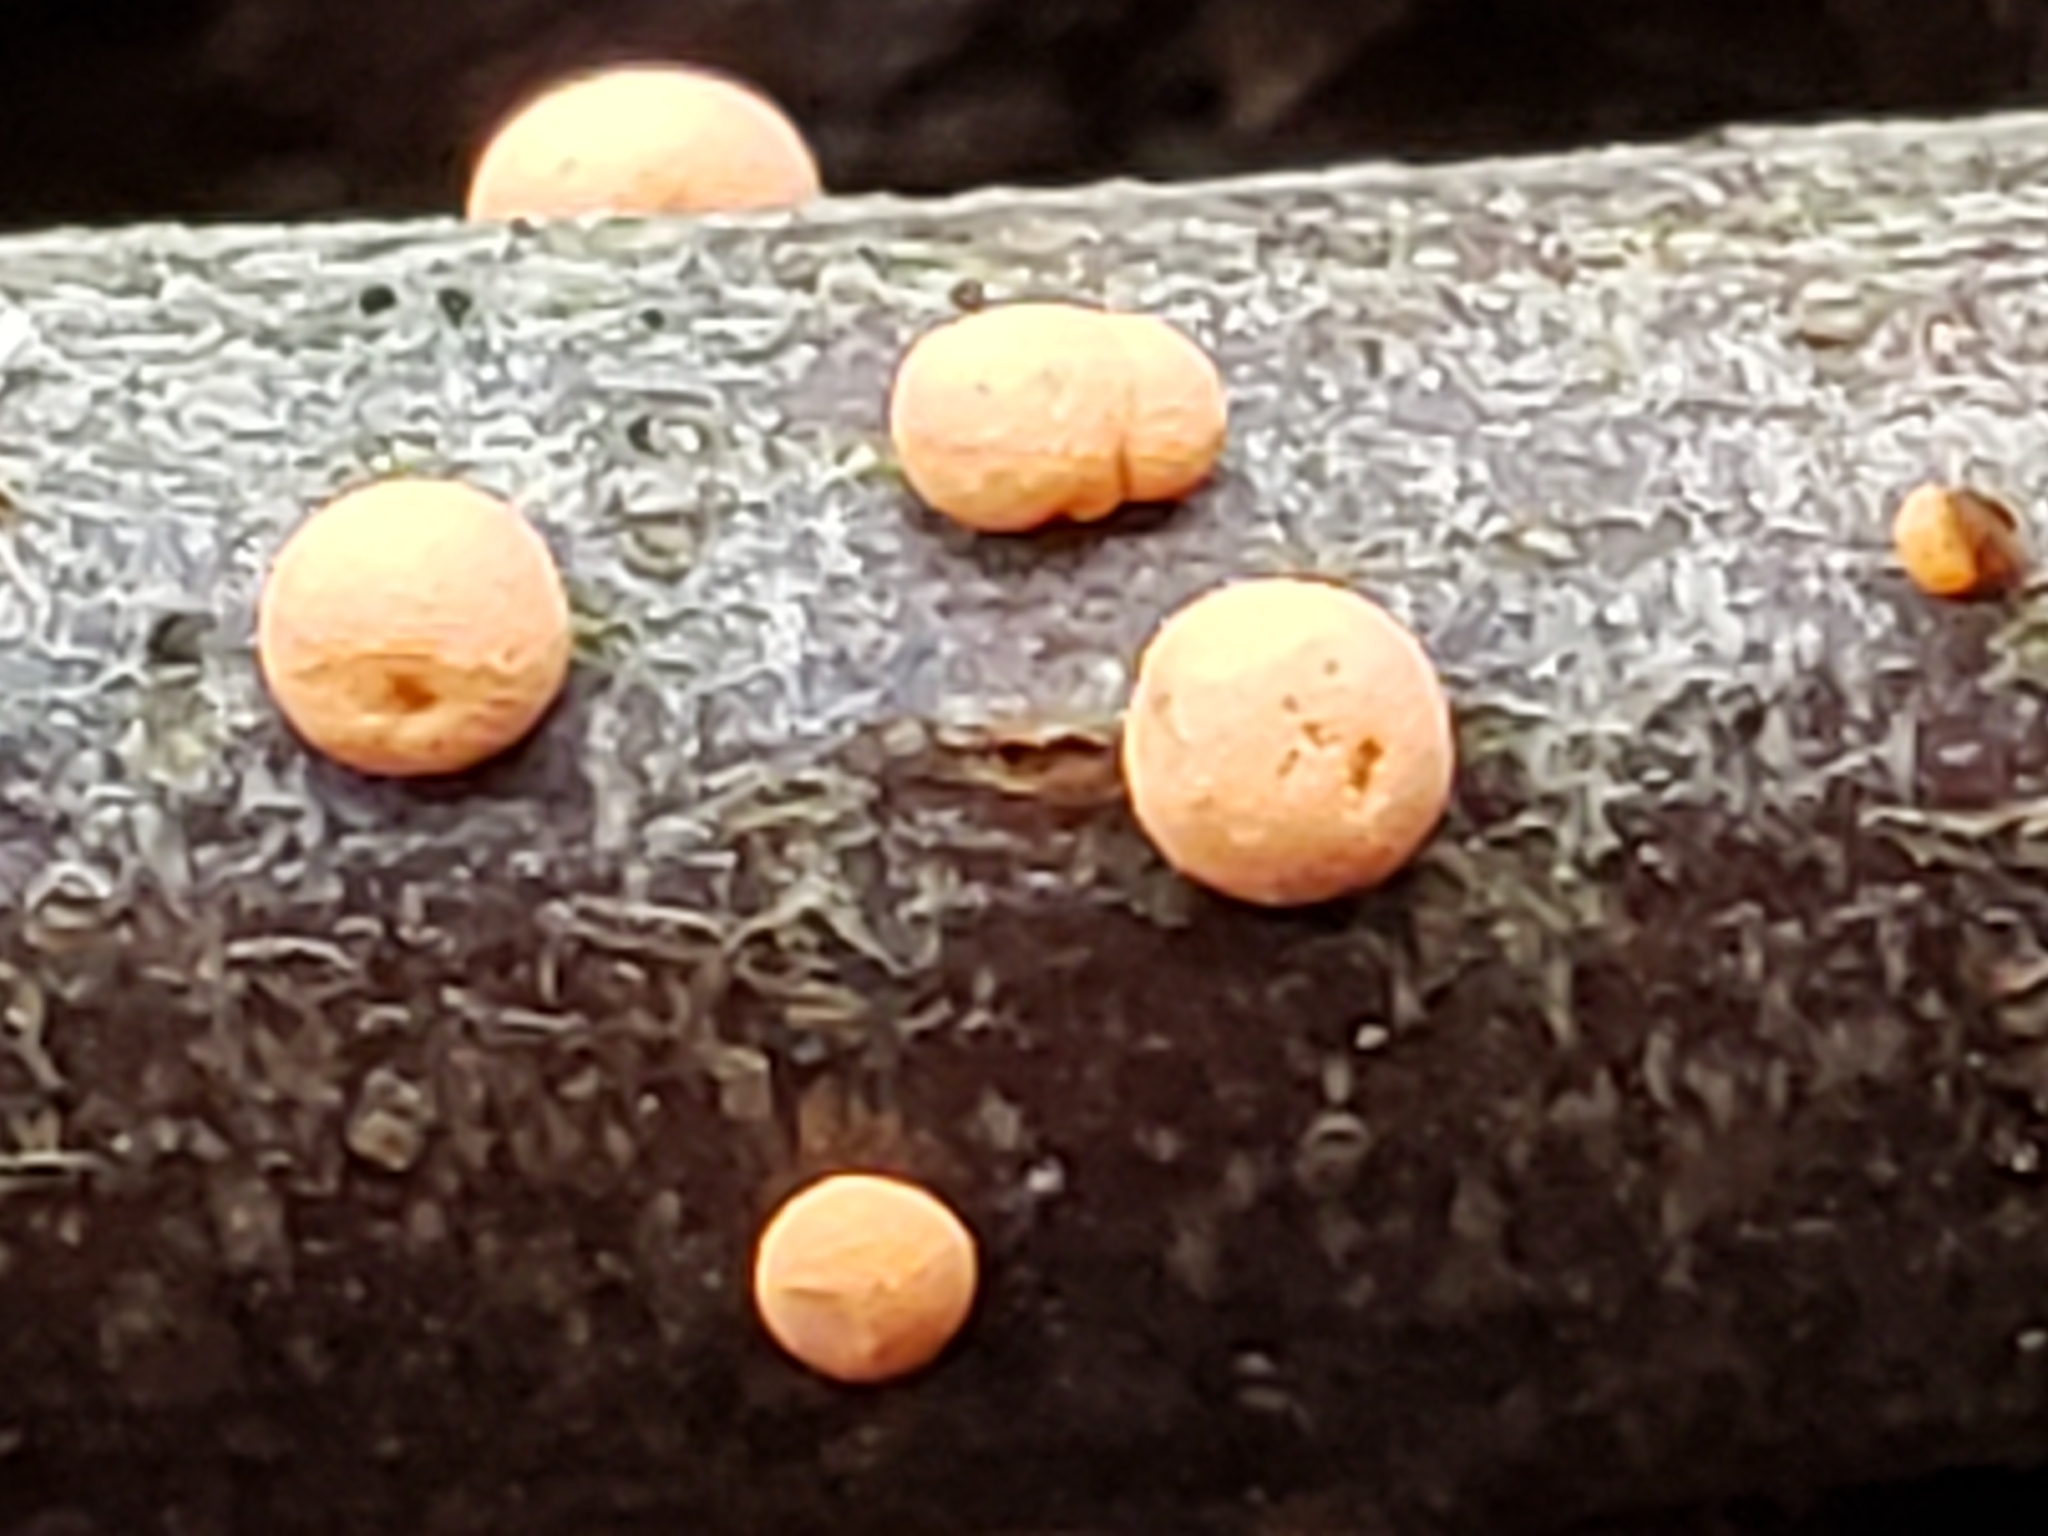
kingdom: Fungi
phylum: Ascomycota
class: Sordariomycetes
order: Hypocreales
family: Nectriaceae
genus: Nectria
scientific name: Nectria cinnabarina
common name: Coral spot
